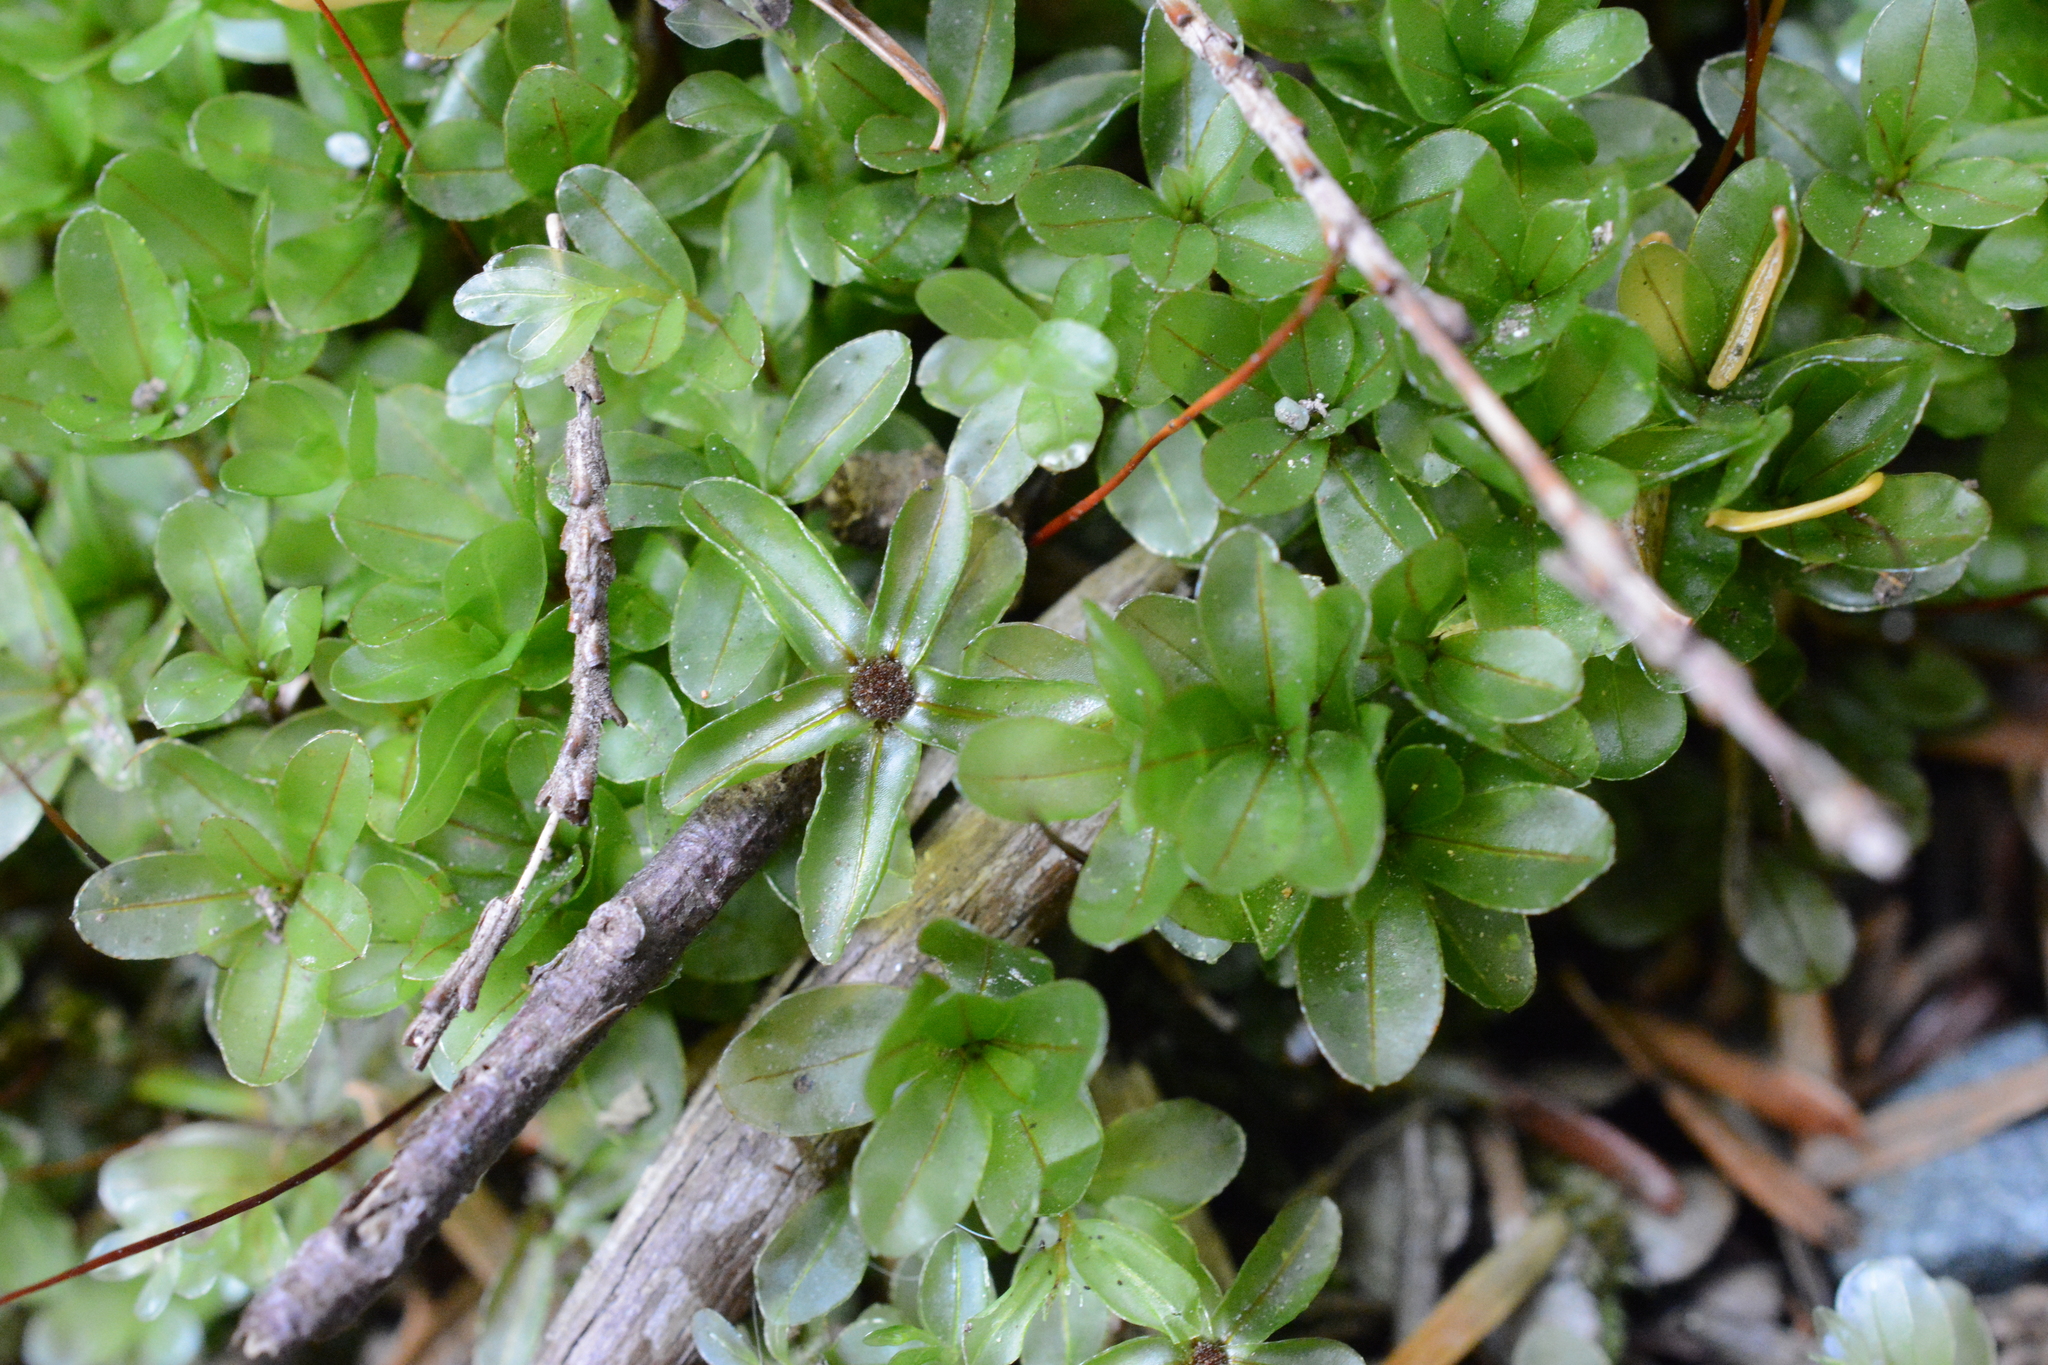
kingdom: Plantae
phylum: Bryophyta
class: Bryopsida
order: Bryales
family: Mniaceae
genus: Rhizomnium
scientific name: Rhizomnium glabrescens
